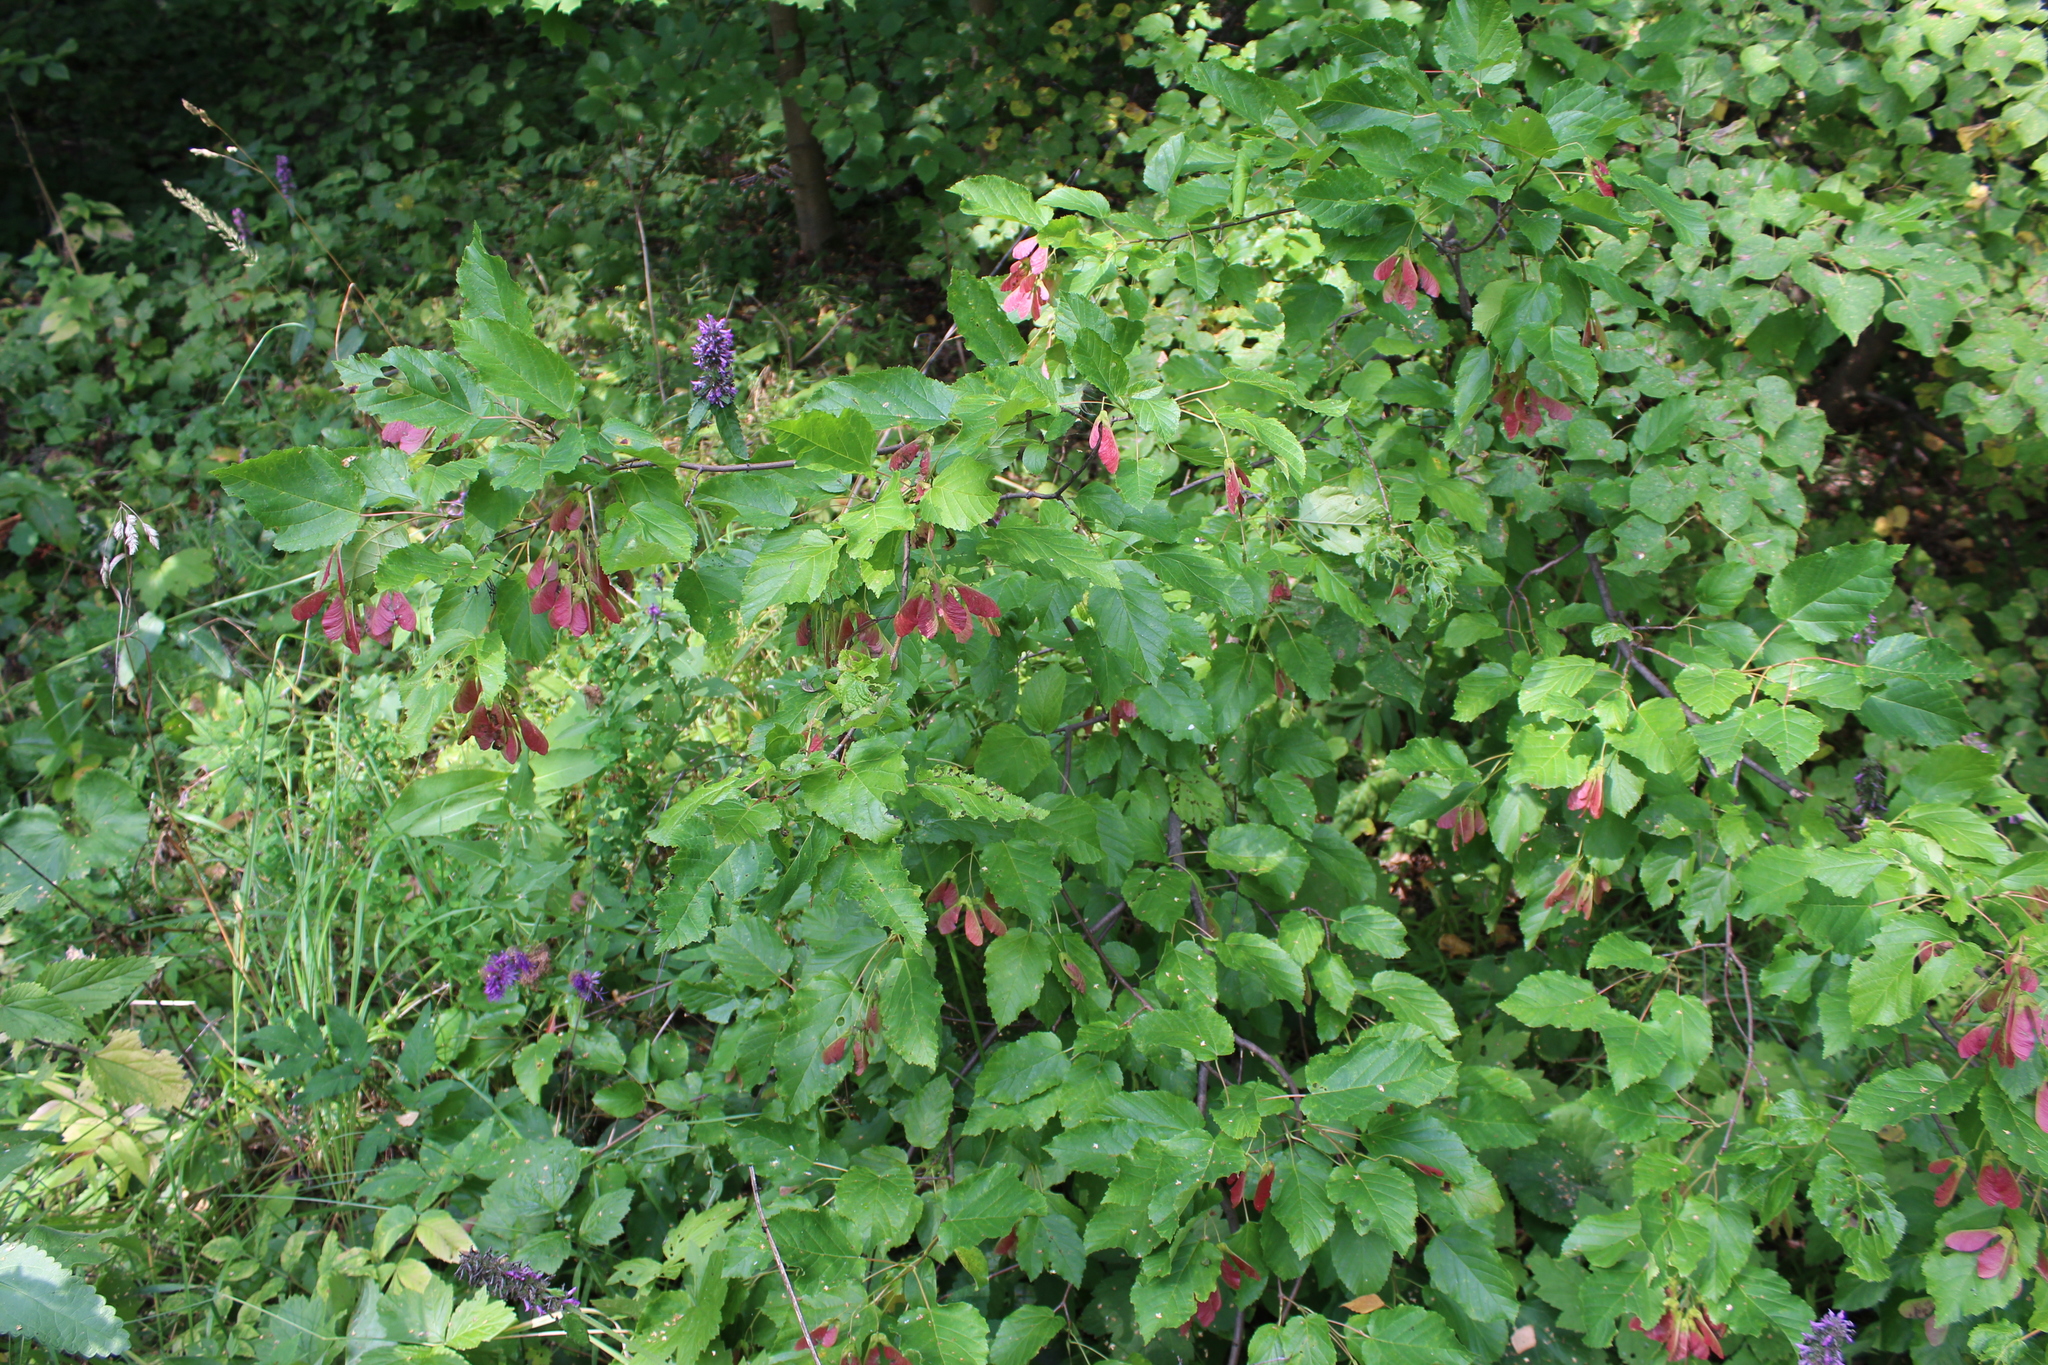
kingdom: Plantae
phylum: Tracheophyta
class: Magnoliopsida
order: Sapindales
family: Sapindaceae
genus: Acer
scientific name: Acer tataricum
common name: Tartar maple
